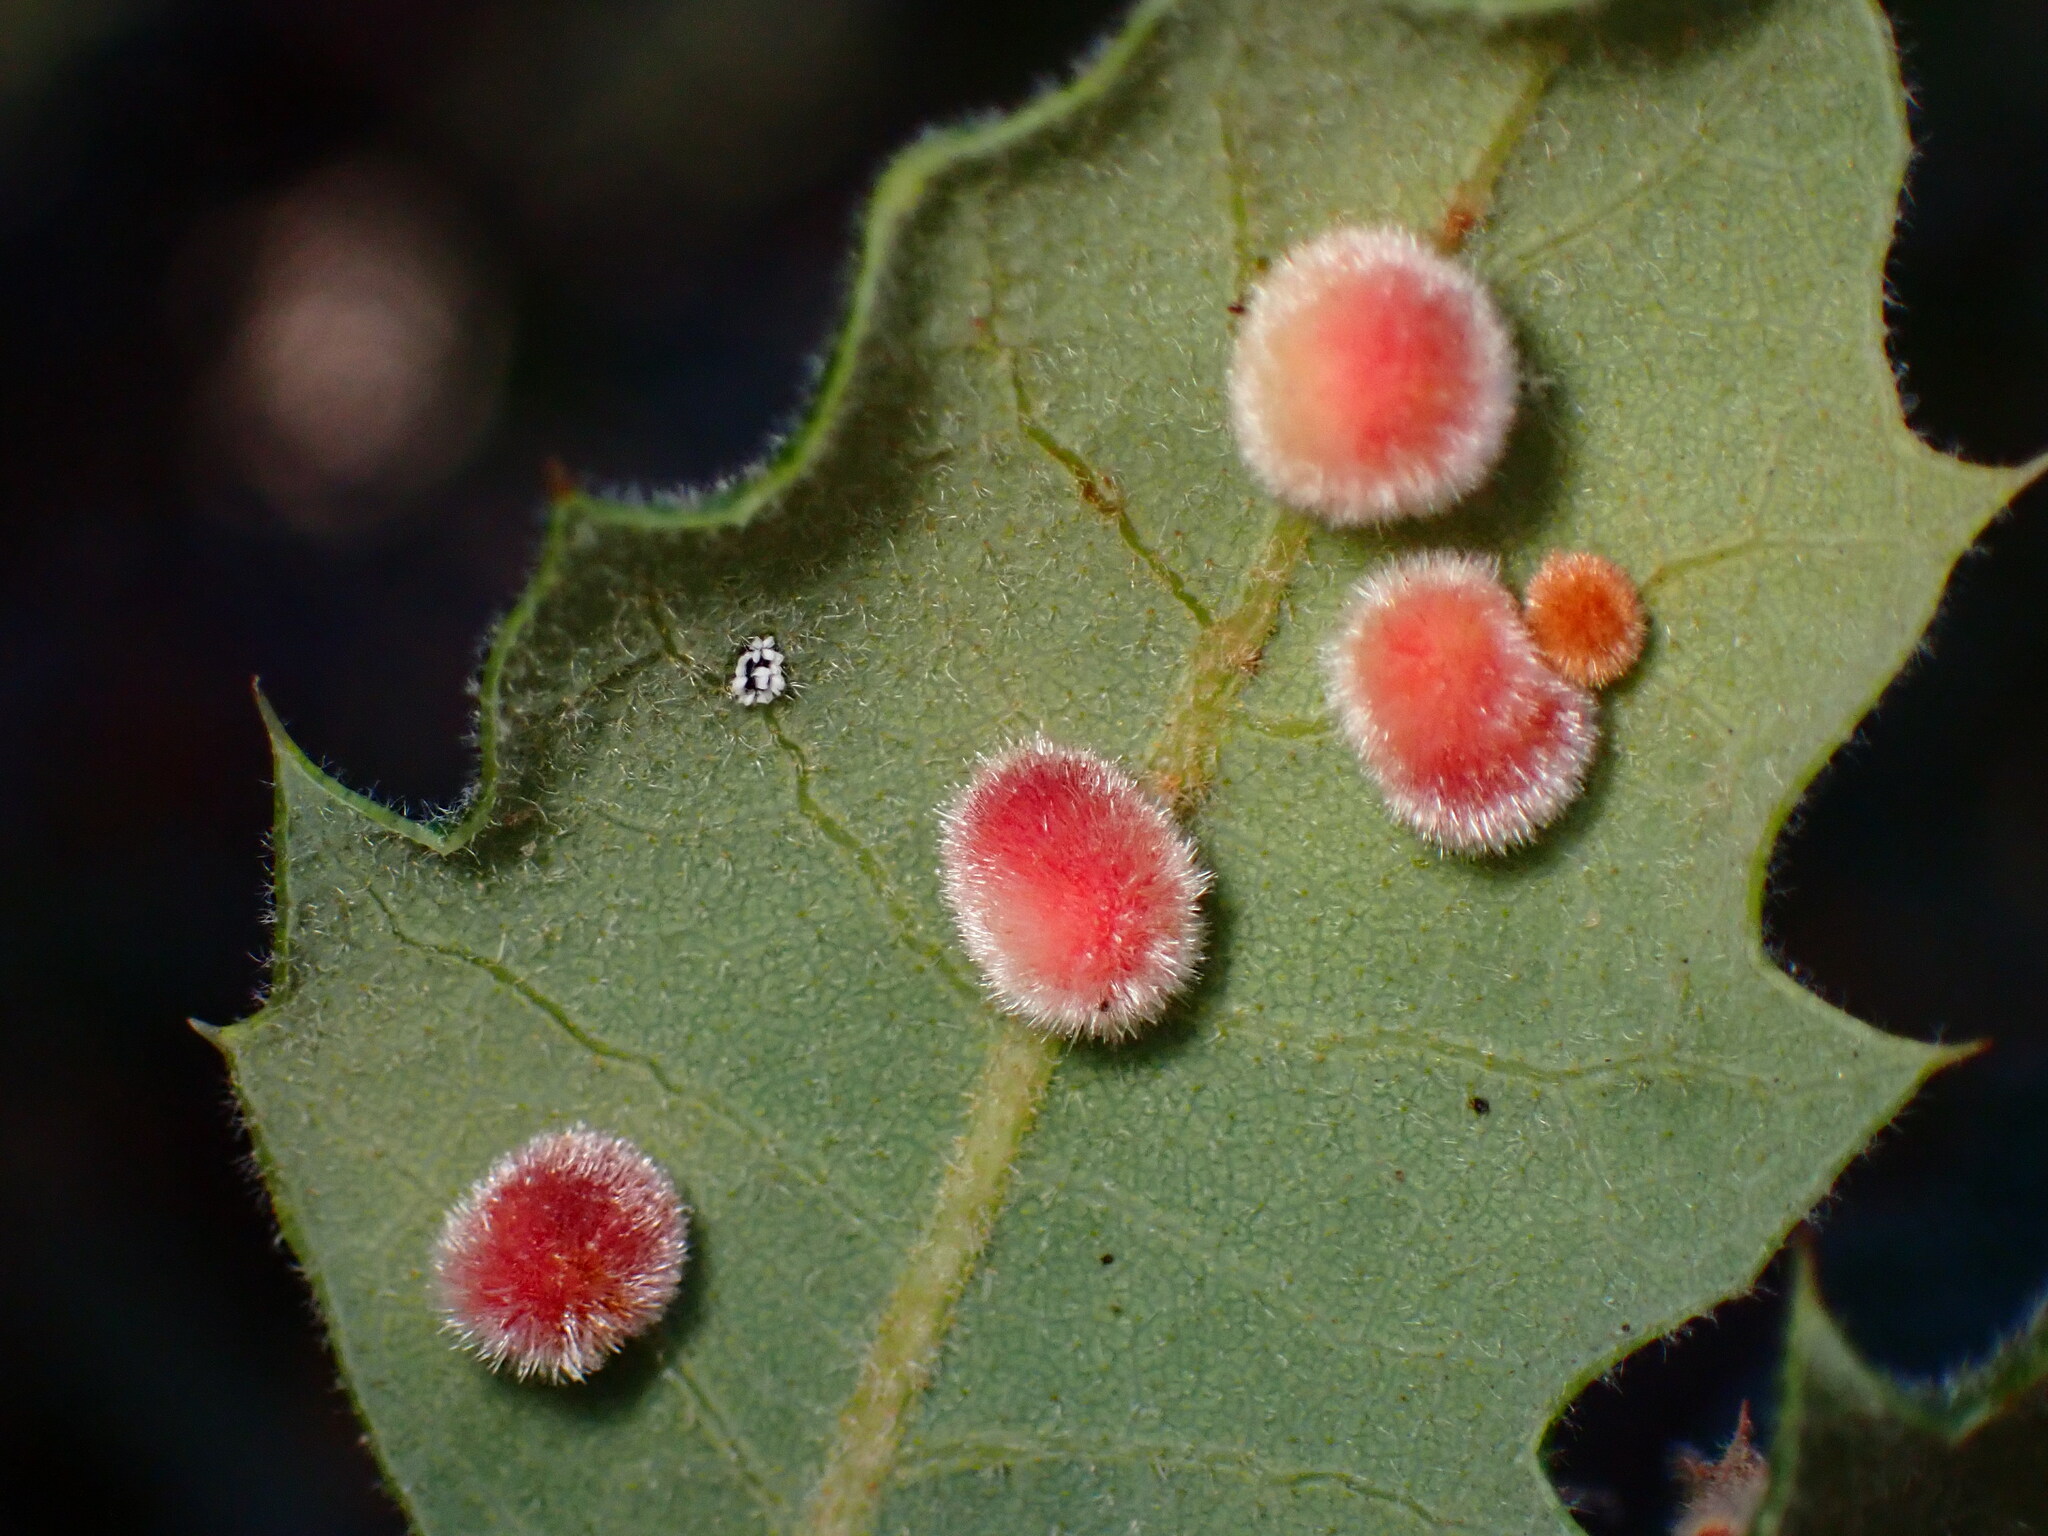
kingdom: Animalia
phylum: Arthropoda
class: Insecta
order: Hymenoptera
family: Cynipidae
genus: Atrusca
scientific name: Atrusca
